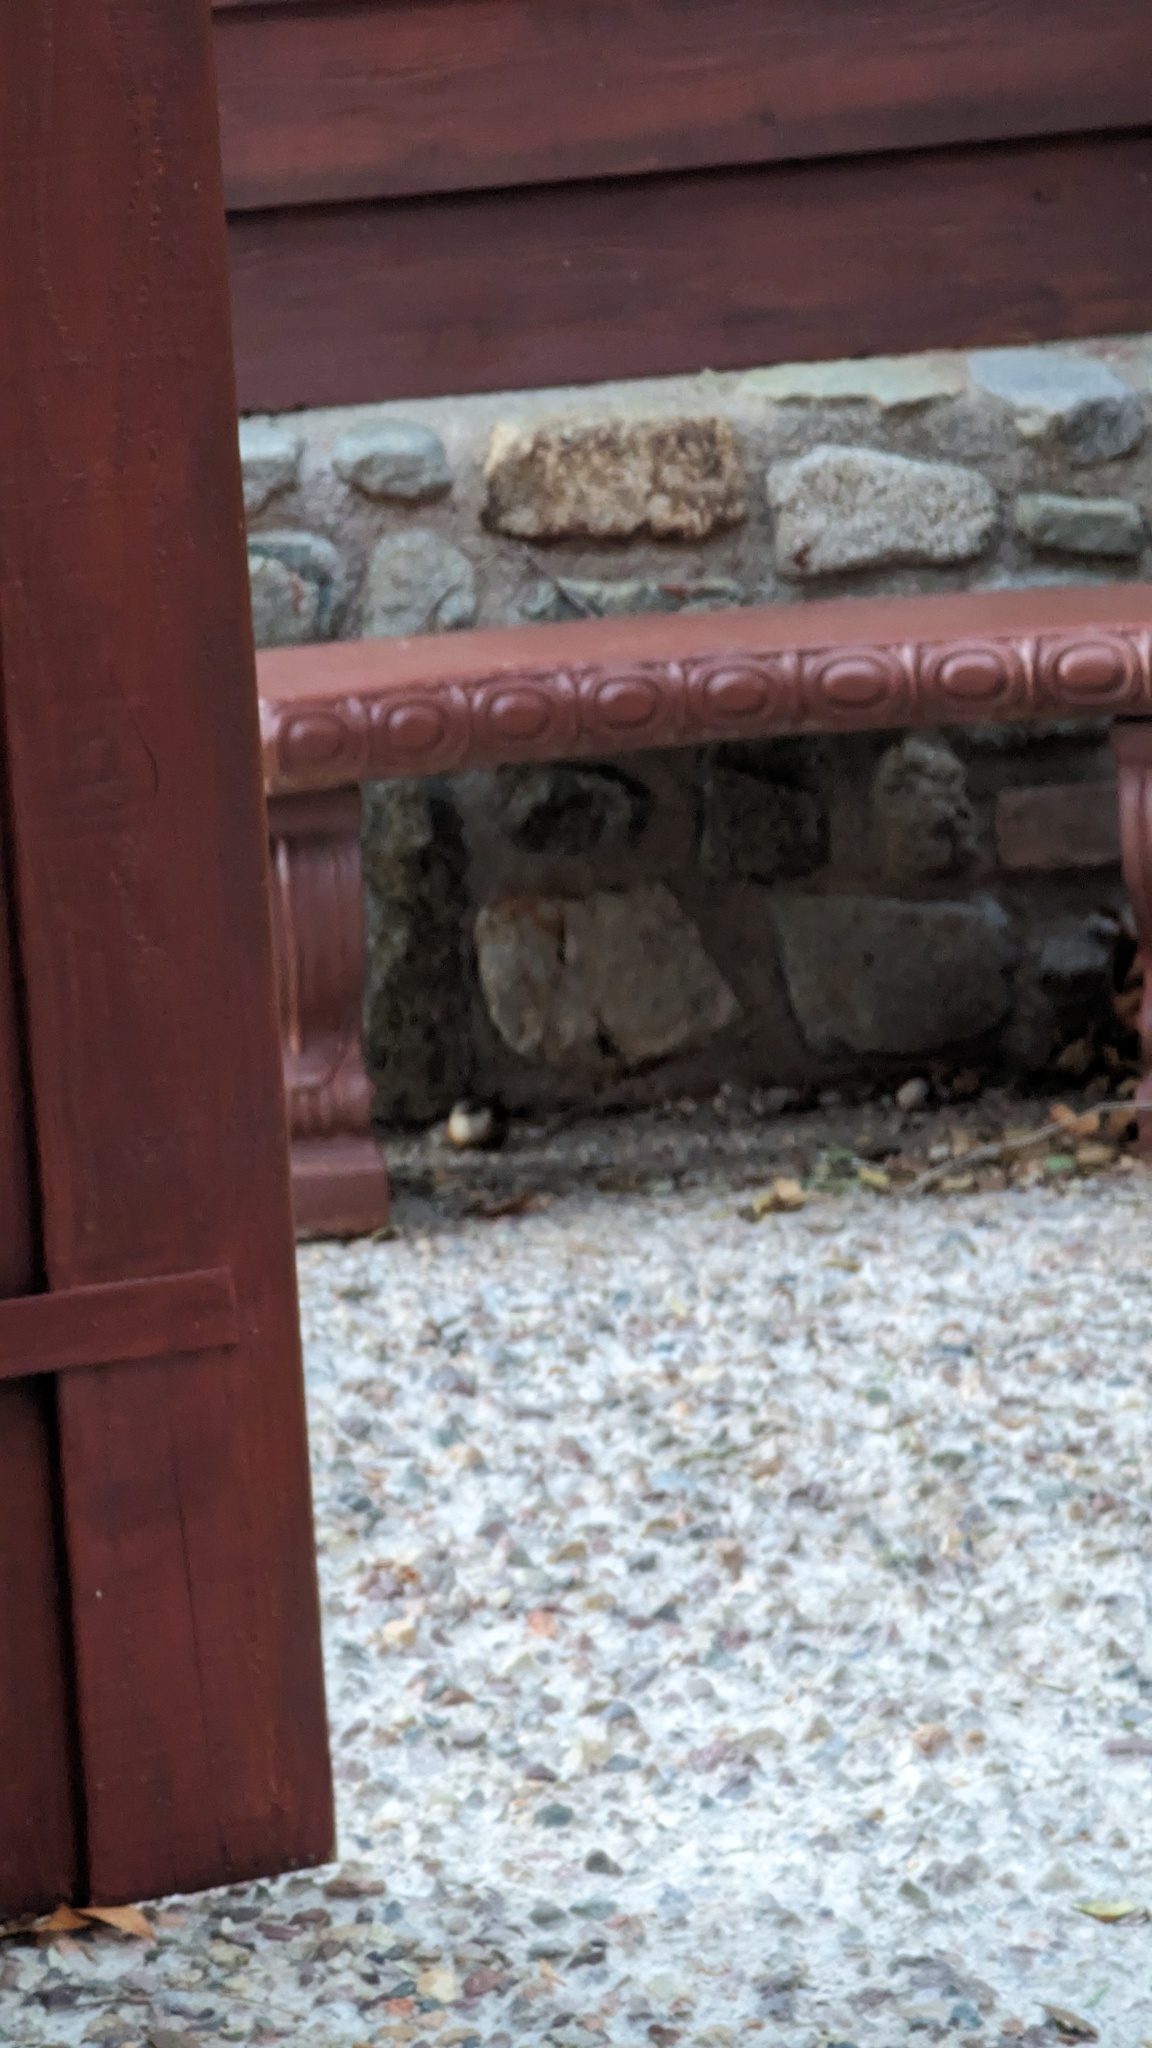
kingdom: Animalia
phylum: Chordata
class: Aves
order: Passeriformes
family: Troglodytidae
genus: Catherpes
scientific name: Catherpes mexicanus
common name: Canyon wren
